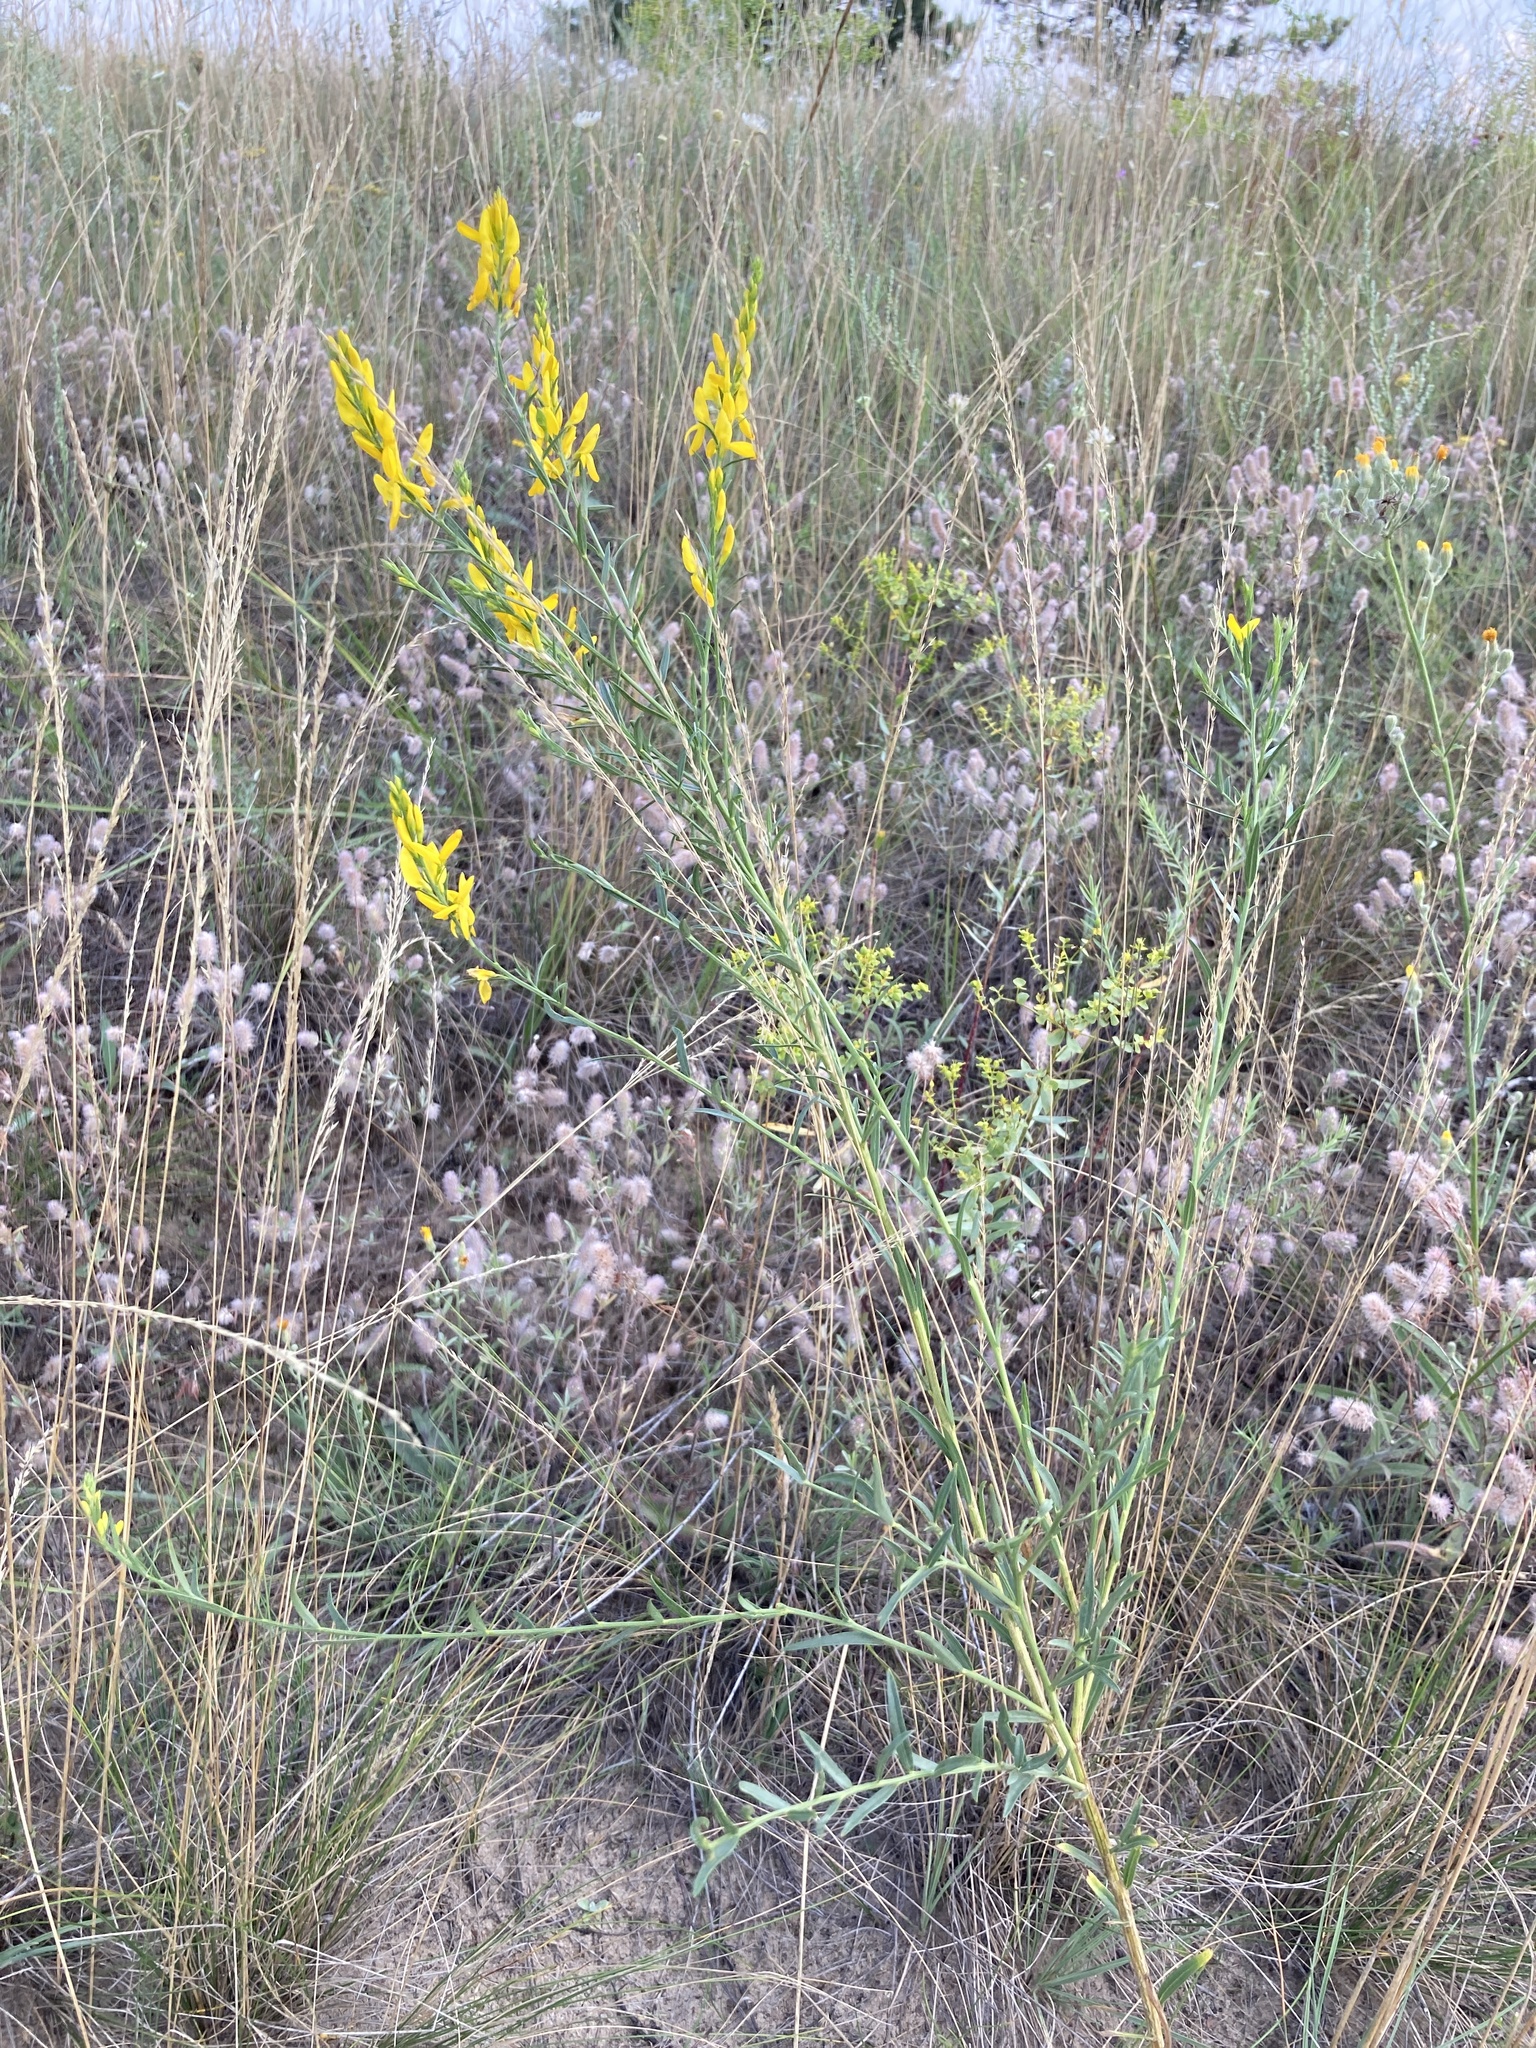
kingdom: Plantae
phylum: Tracheophyta
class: Magnoliopsida
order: Fabales
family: Fabaceae
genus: Genista
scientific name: Genista tinctoria
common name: Dyer's greenweed
